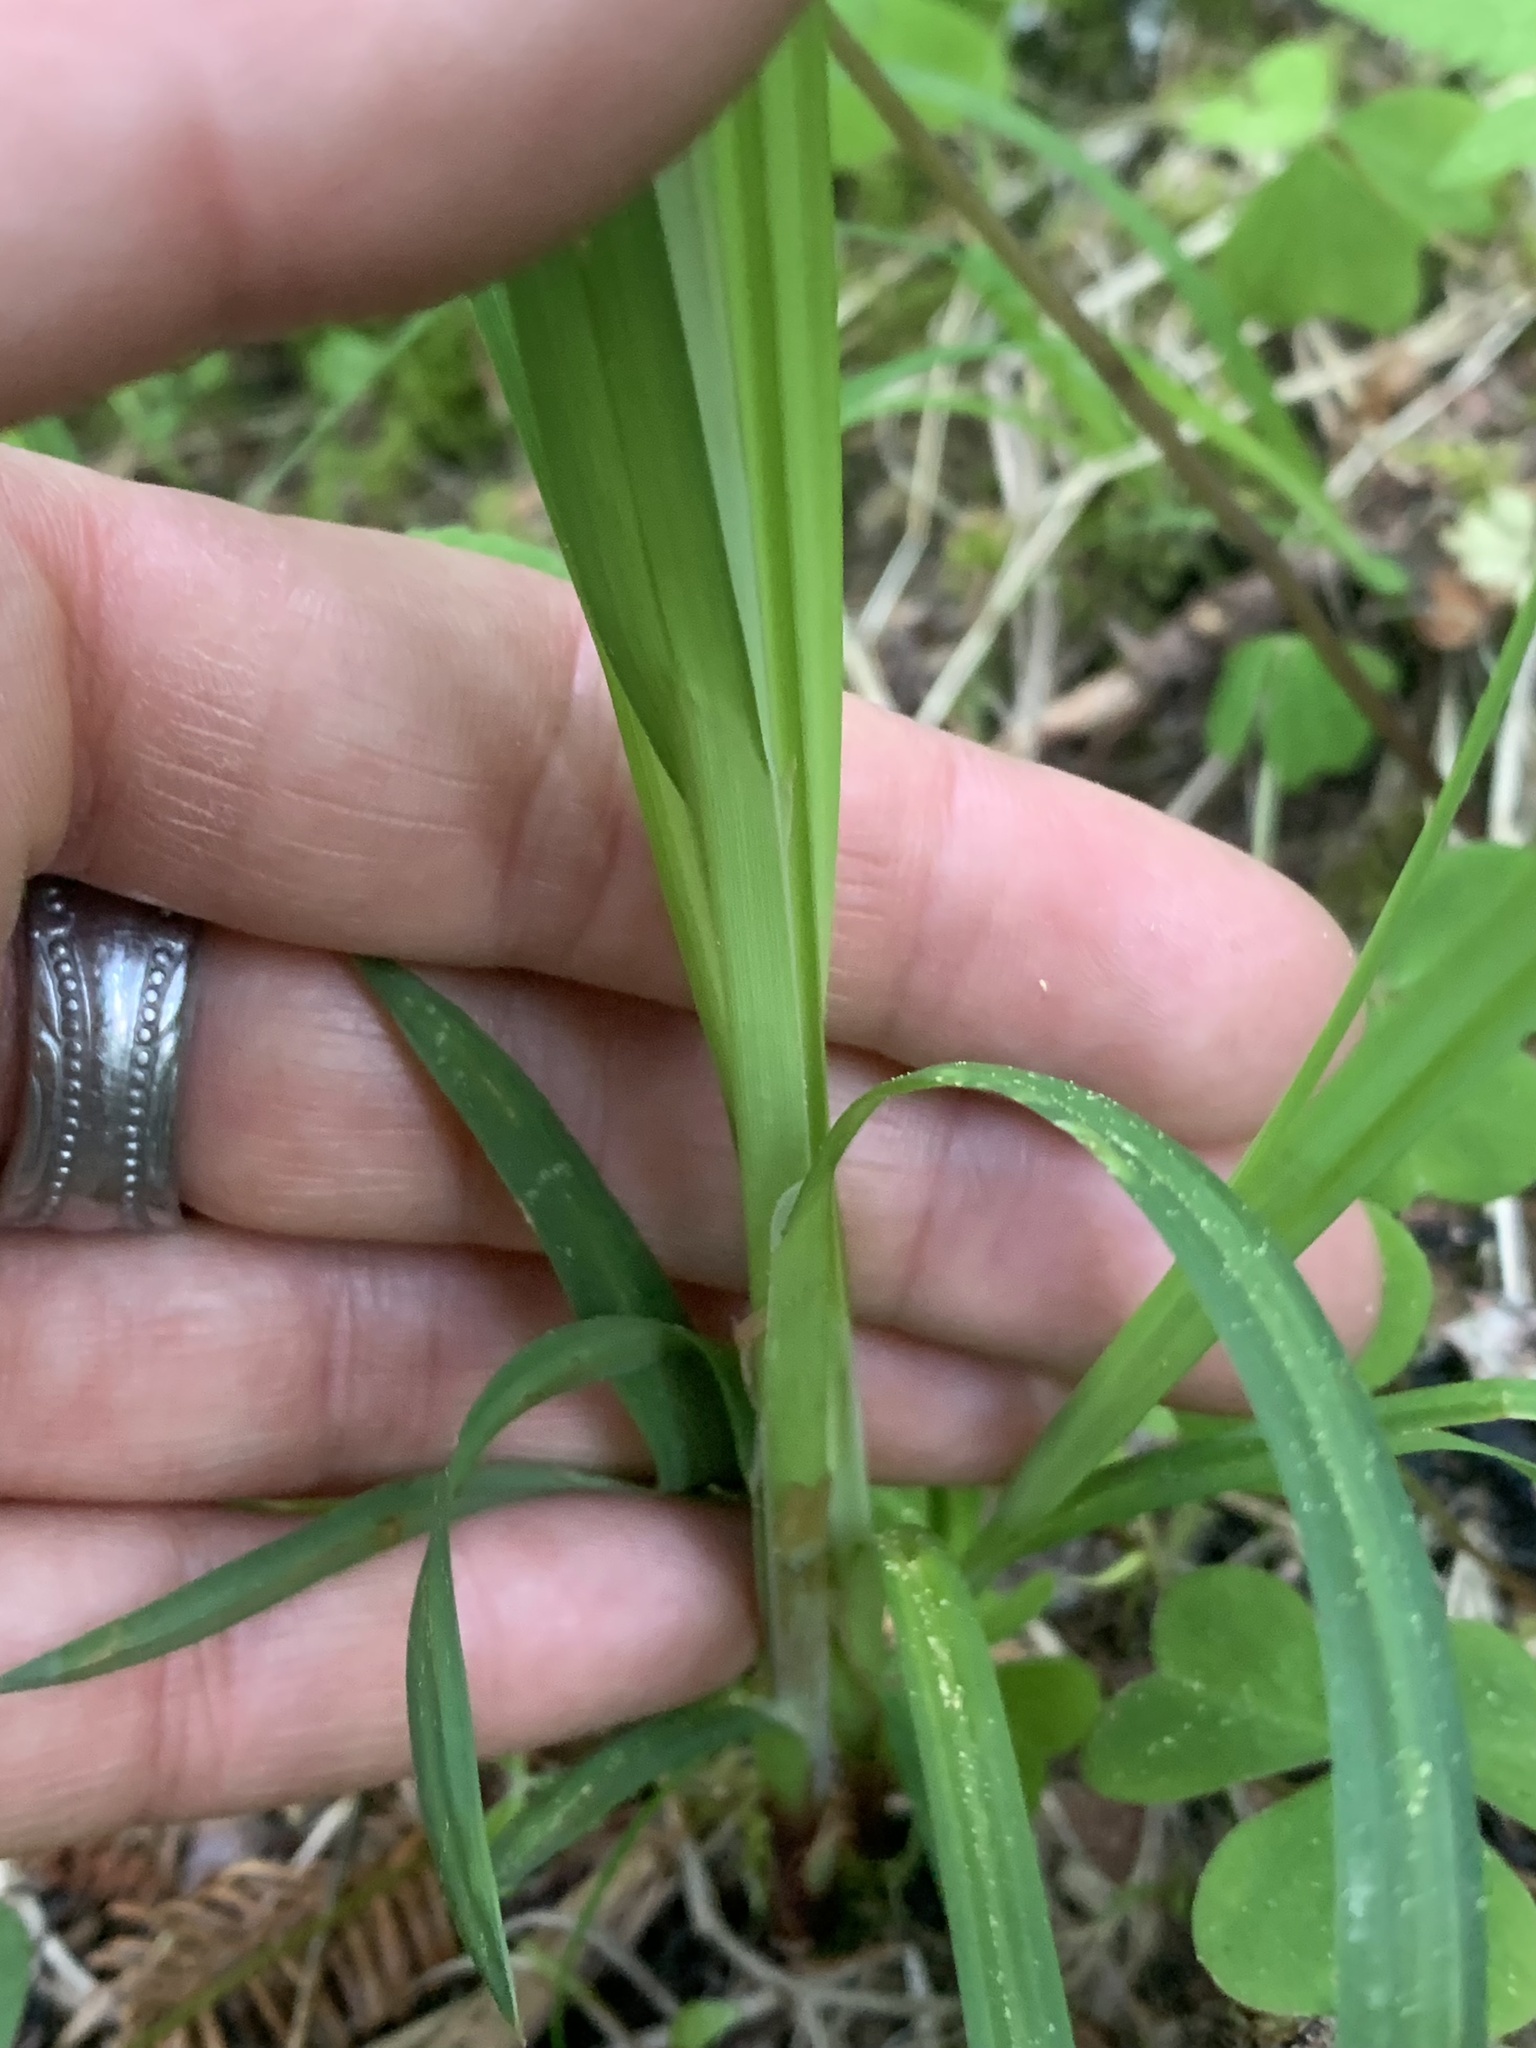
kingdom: Plantae
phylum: Tracheophyta
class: Liliopsida
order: Poales
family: Cyperaceae
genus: Carex
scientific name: Carex mertensii
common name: Mertens' sedge
